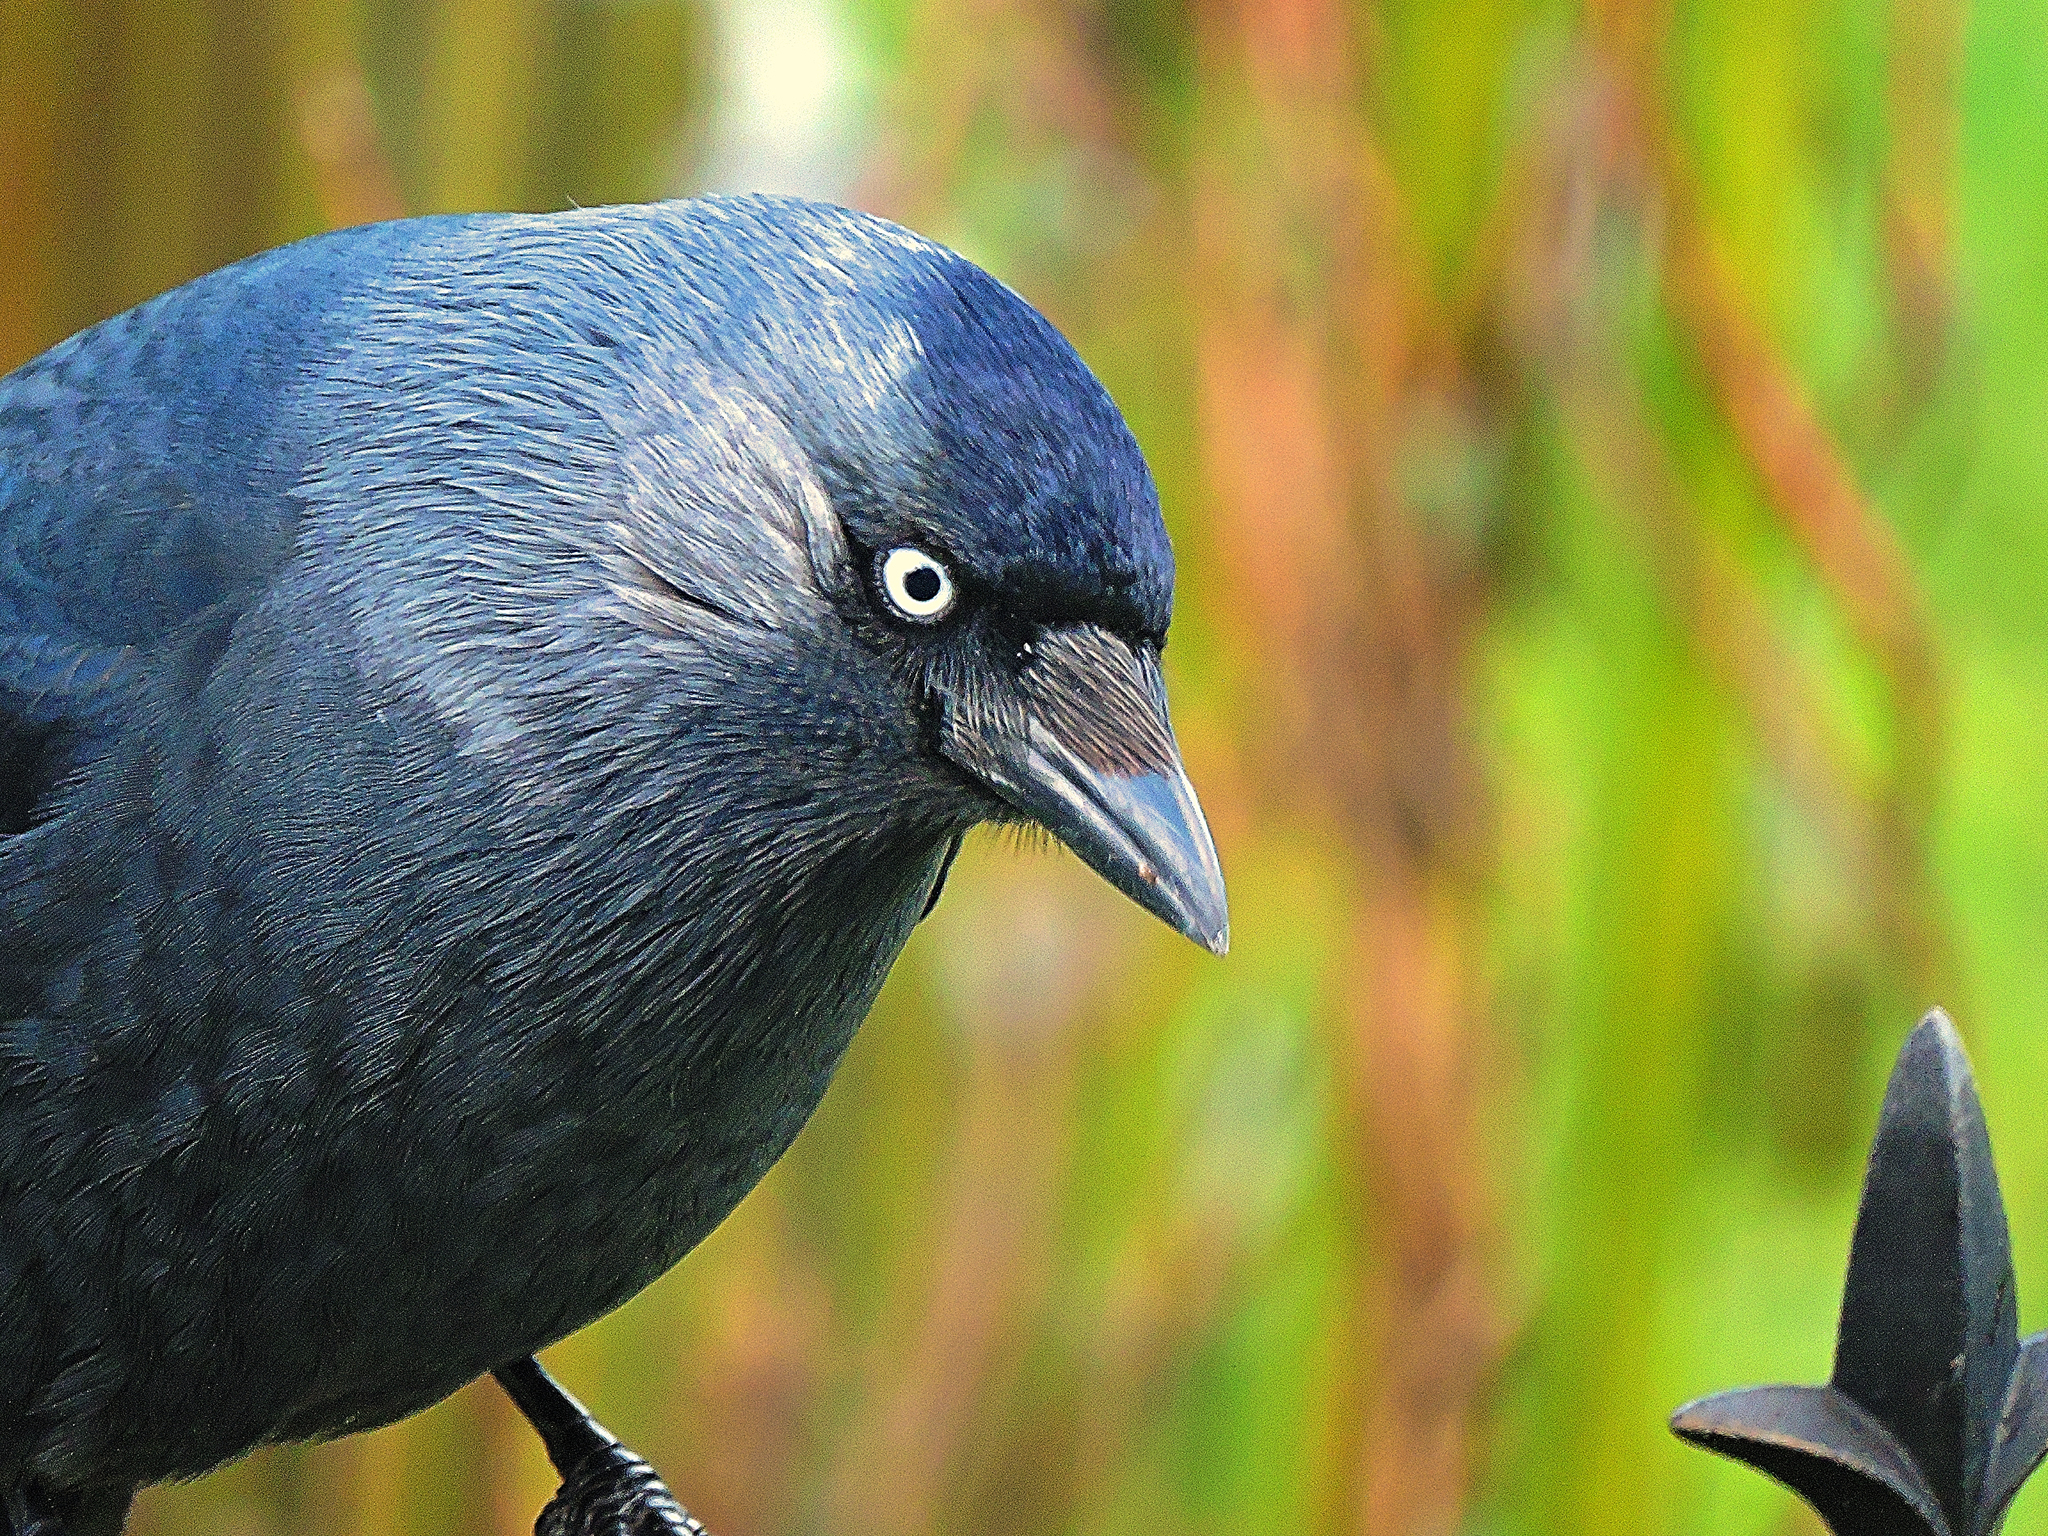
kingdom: Animalia
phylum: Chordata
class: Aves
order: Passeriformes
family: Corvidae
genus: Coloeus
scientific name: Coloeus monedula
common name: Western jackdaw
